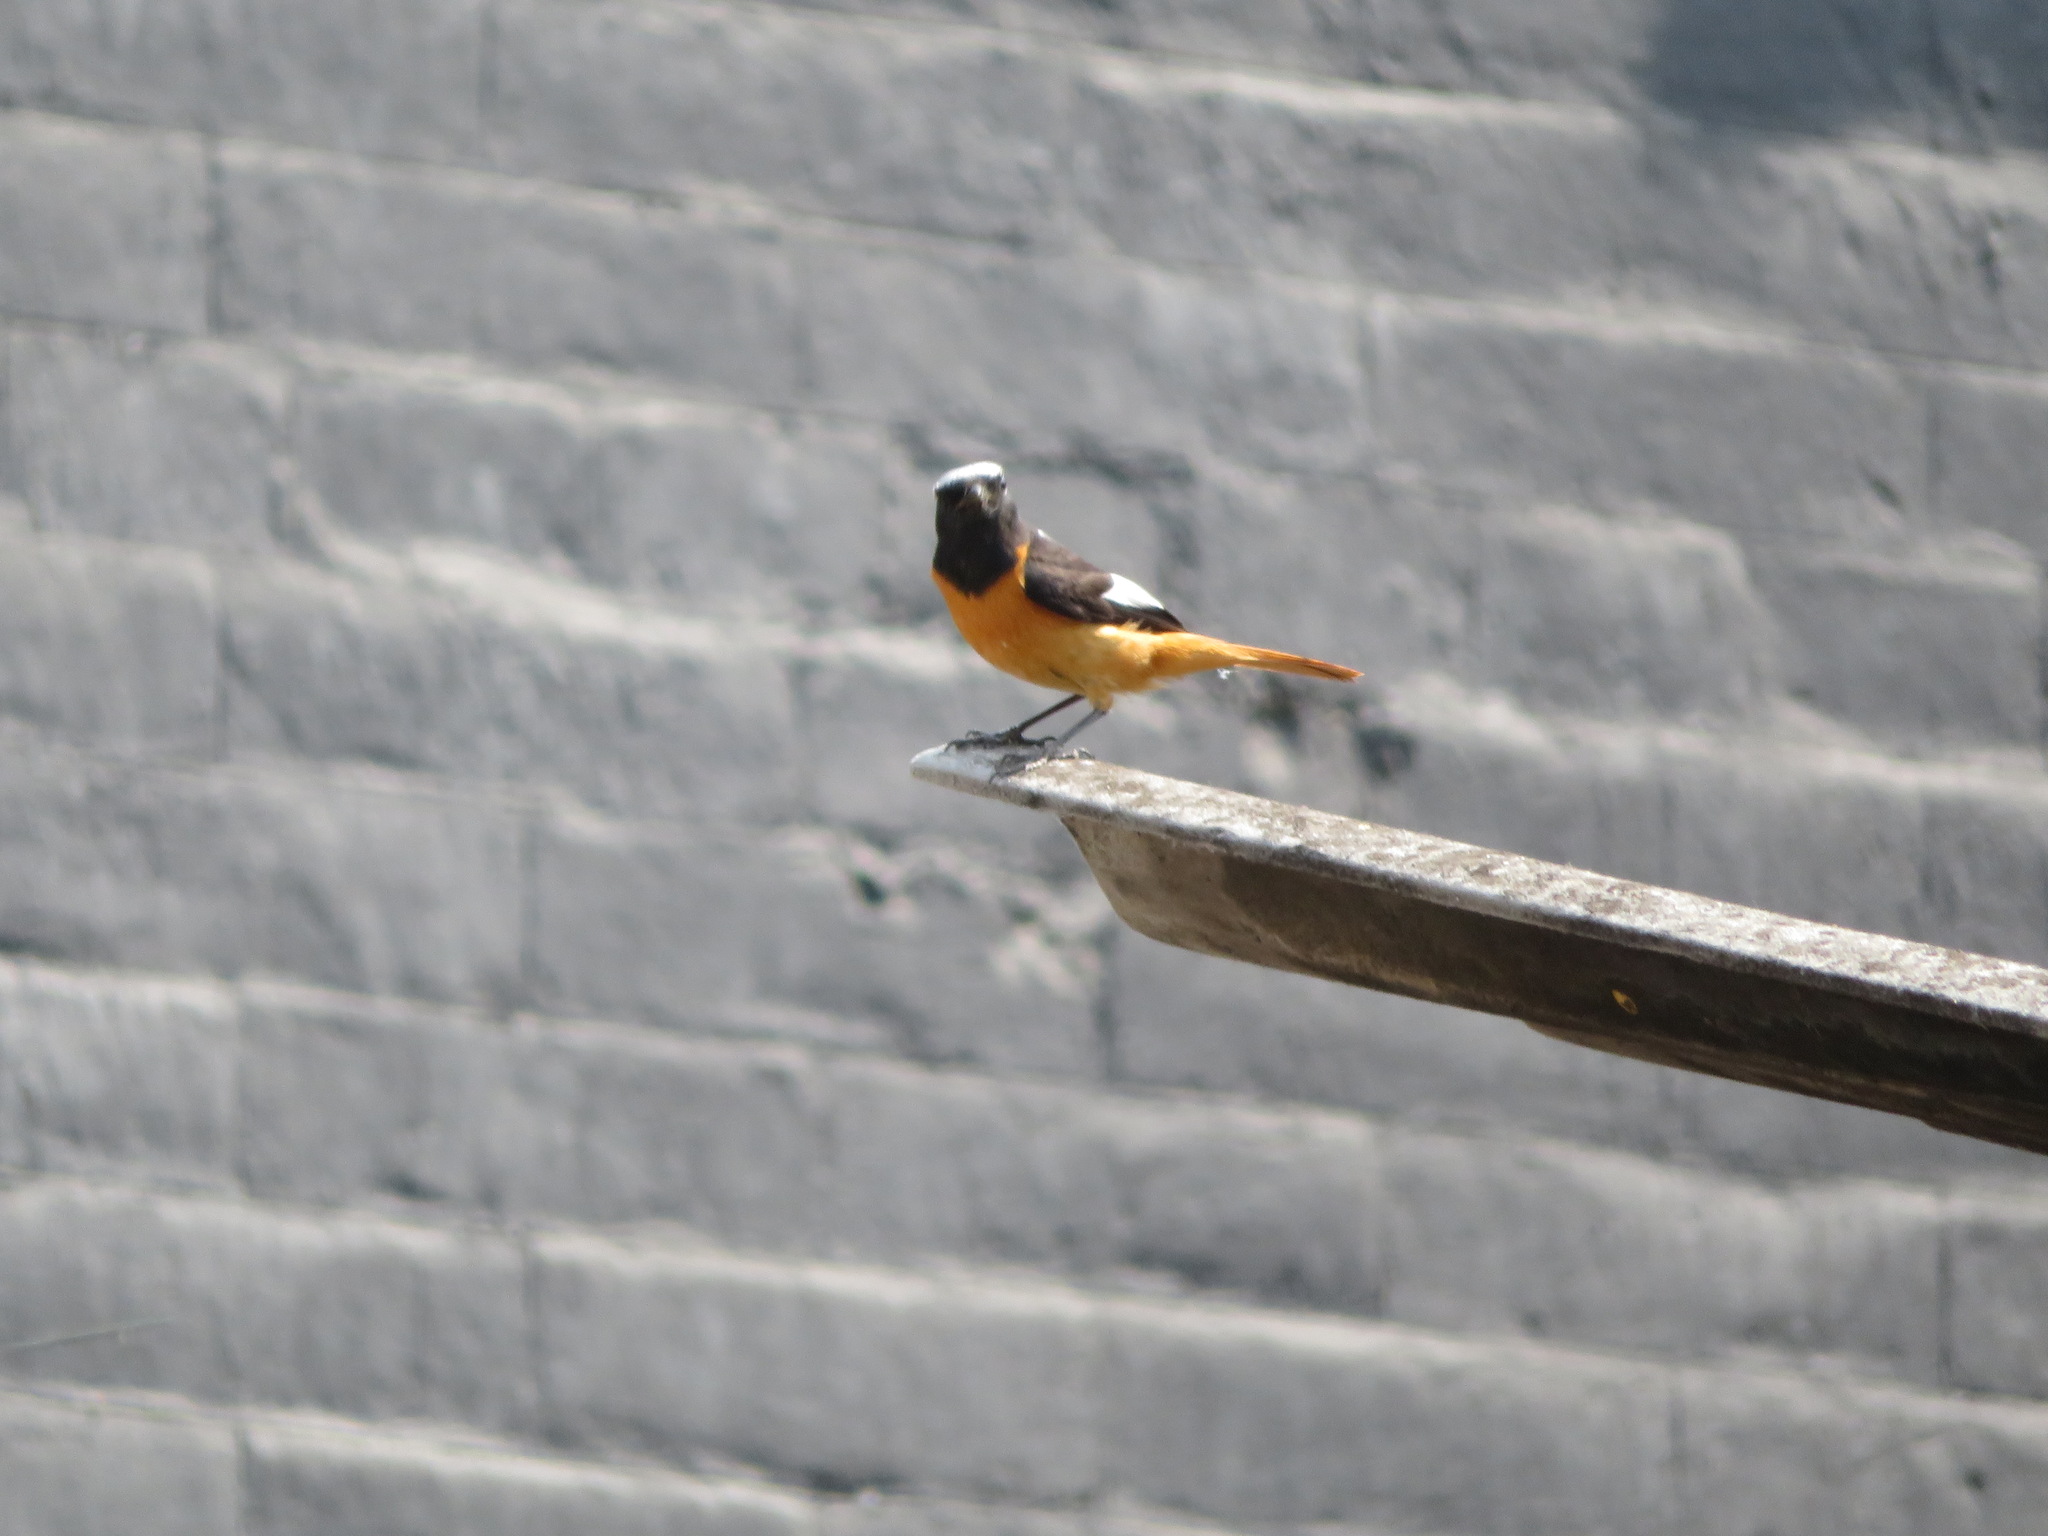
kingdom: Animalia
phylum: Chordata
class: Aves
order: Passeriformes
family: Muscicapidae
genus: Phoenicurus
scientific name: Phoenicurus auroreus
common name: Daurian redstart
